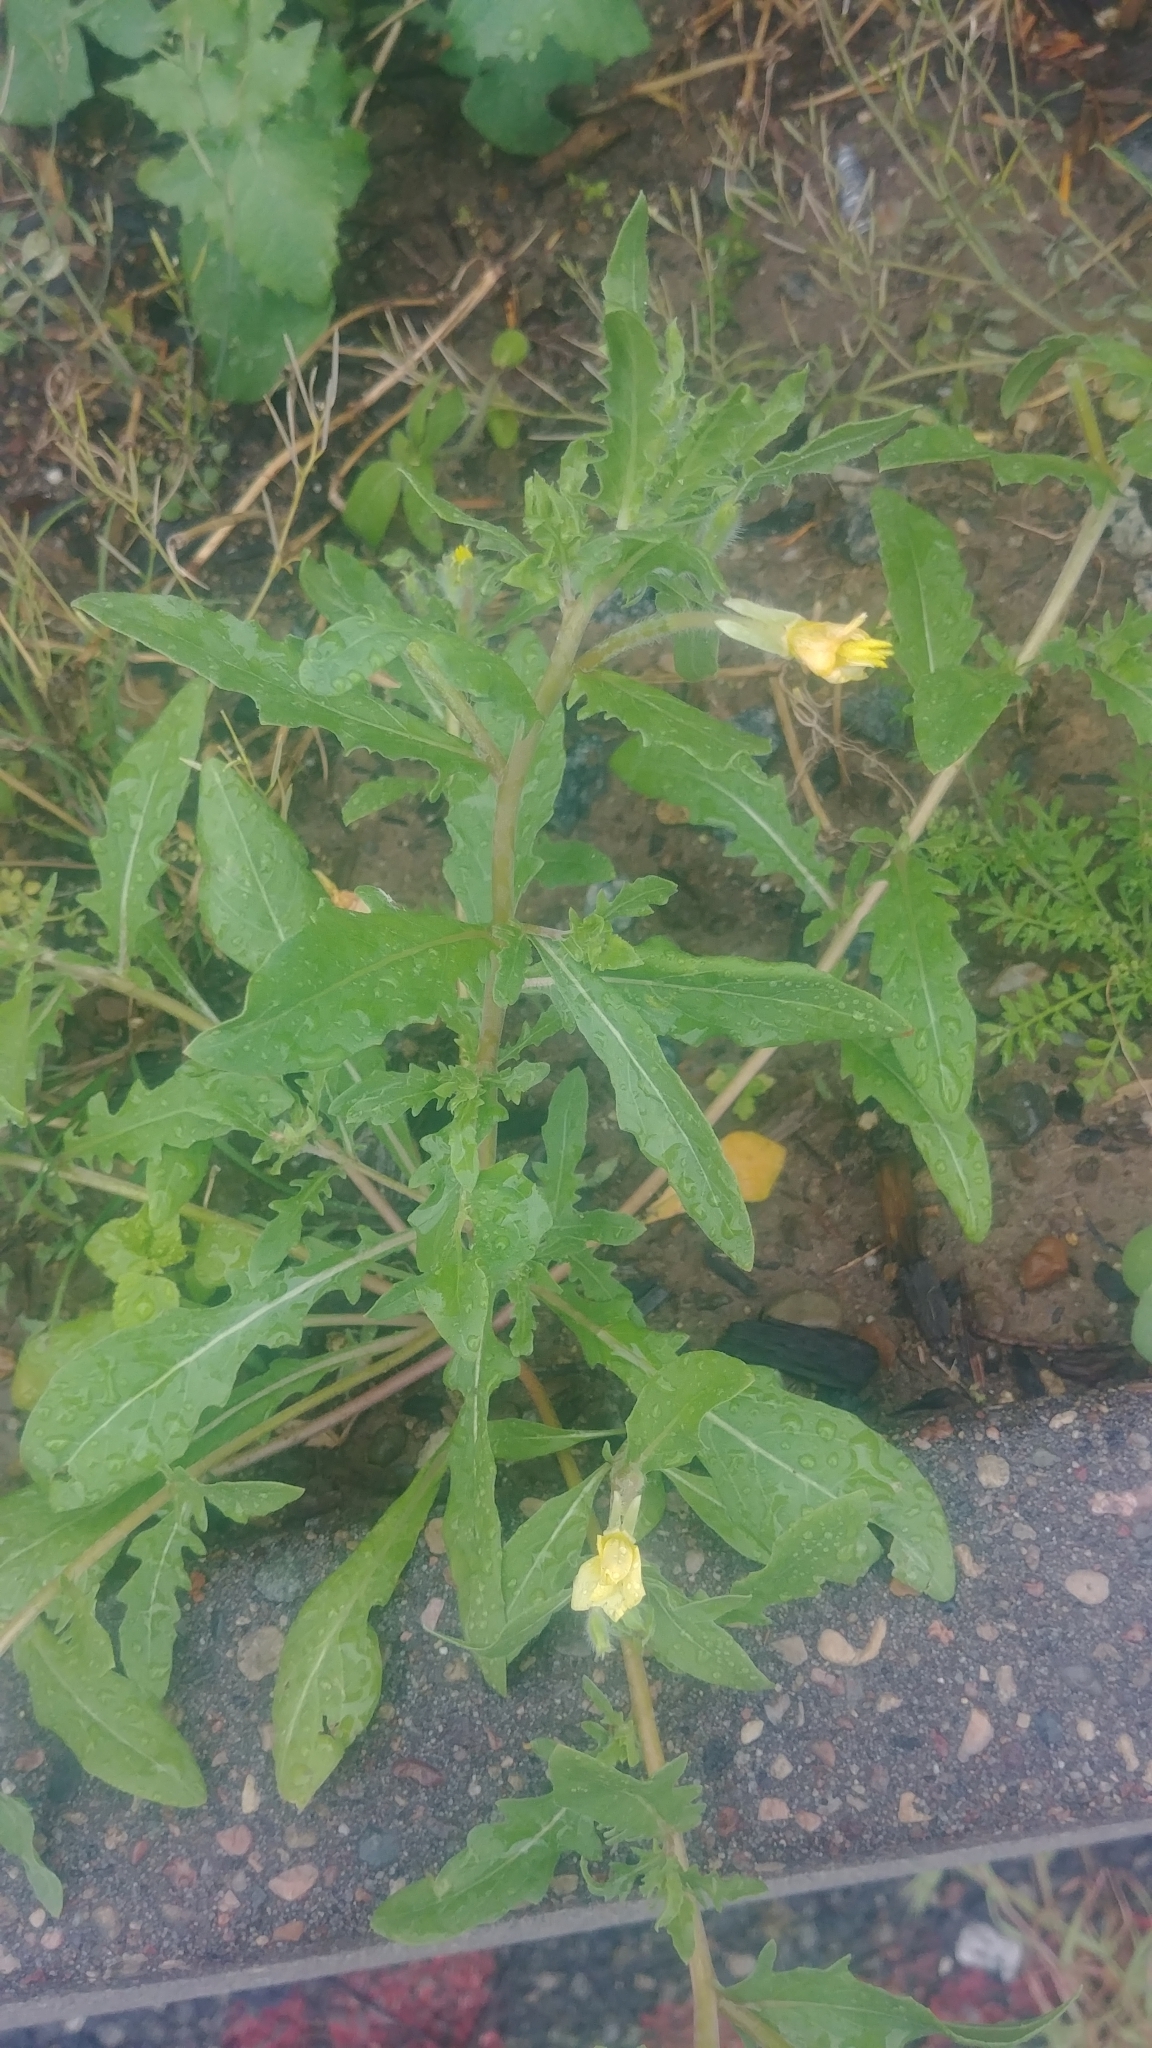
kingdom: Plantae
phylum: Tracheophyta
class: Magnoliopsida
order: Myrtales
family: Onagraceae
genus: Oenothera
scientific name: Oenothera laciniata
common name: Cut-leaved evening-primrose
